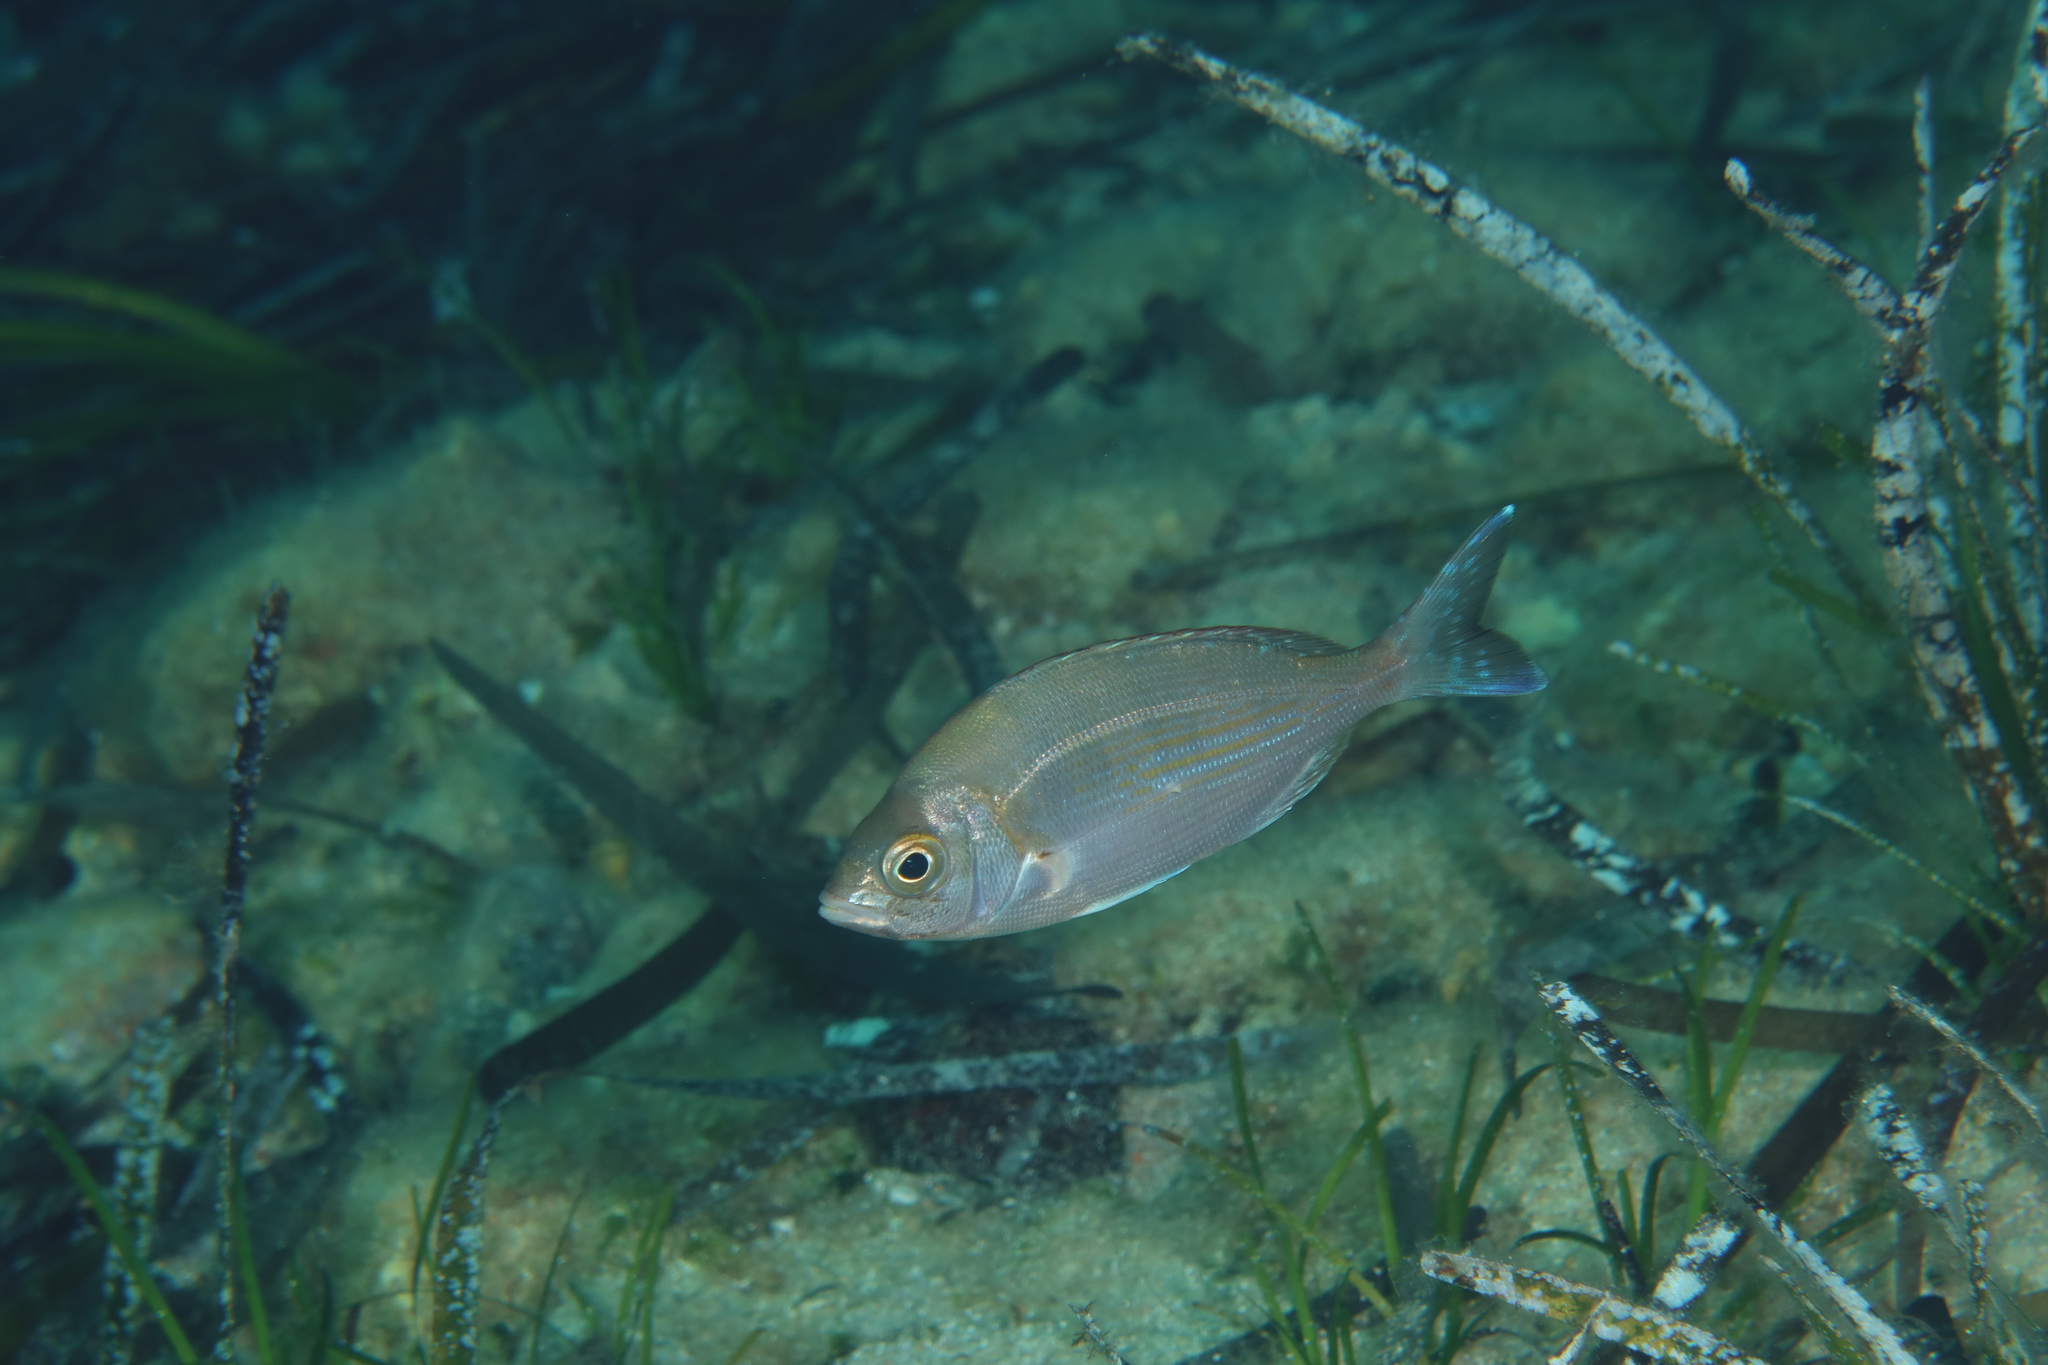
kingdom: Animalia
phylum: Chordata
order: Perciformes
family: Sparidae
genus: Spondyliosoma
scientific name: Spondyliosoma cantharus
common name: Black seabream
